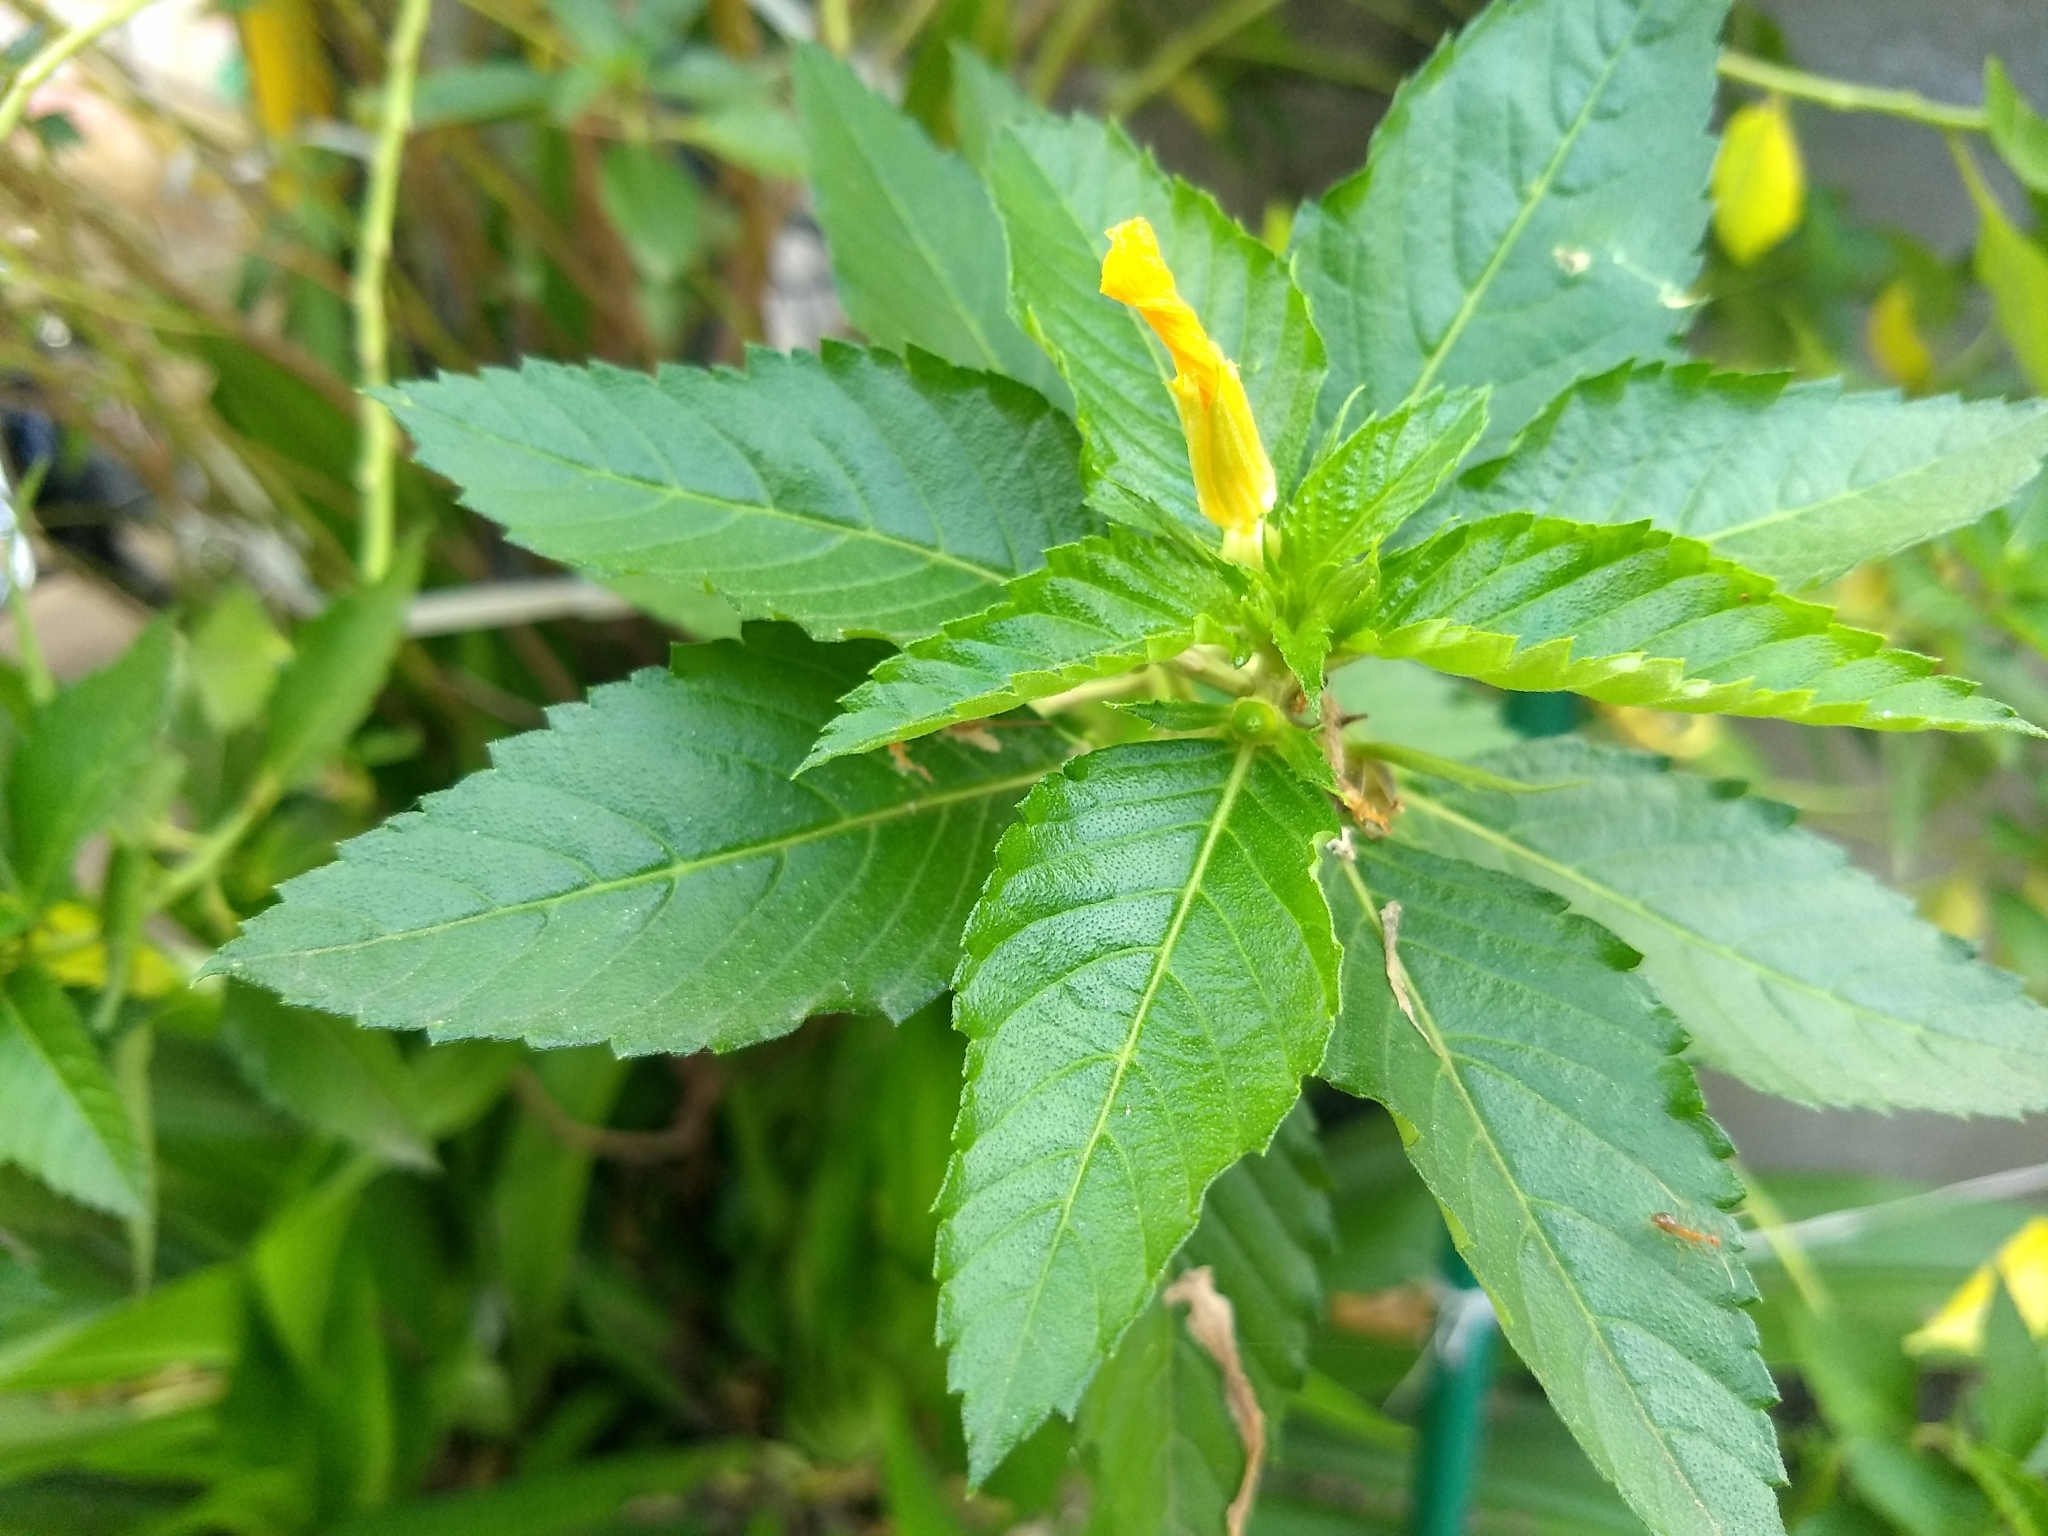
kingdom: Plantae
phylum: Tracheophyta
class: Magnoliopsida
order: Malpighiales
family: Turneraceae
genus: Turnera
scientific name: Turnera ulmifolia
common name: Ramgoat dashalong
